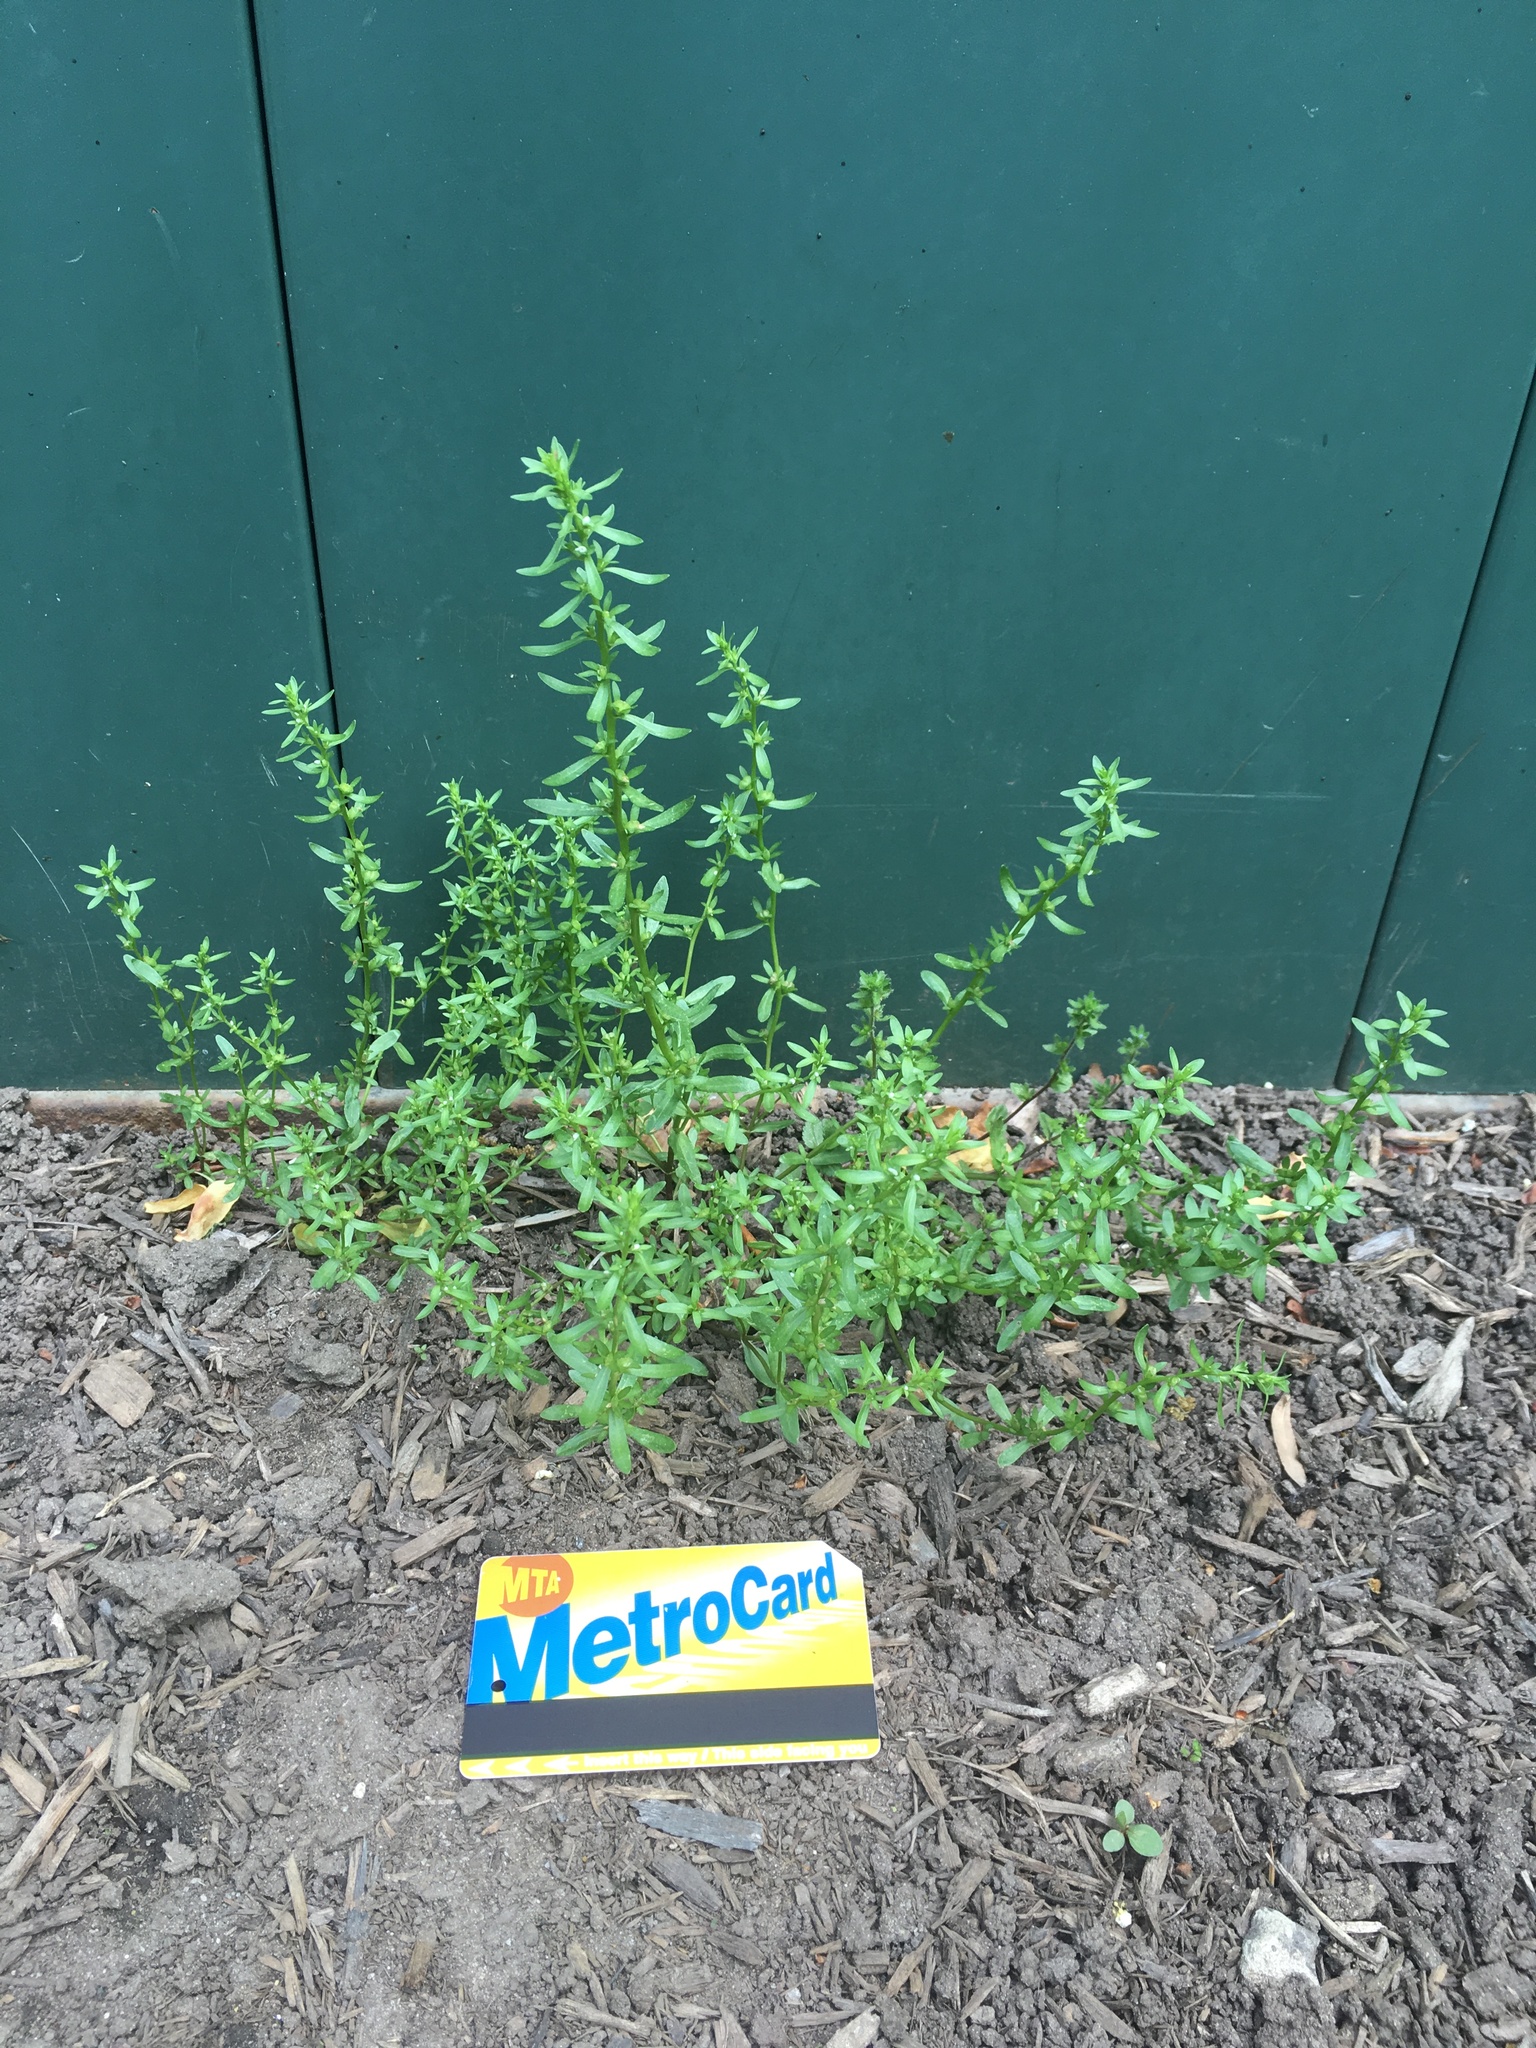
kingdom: Plantae
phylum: Tracheophyta
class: Magnoliopsida
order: Lamiales
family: Plantaginaceae
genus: Veronica
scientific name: Veronica peregrina
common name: Neckweed
